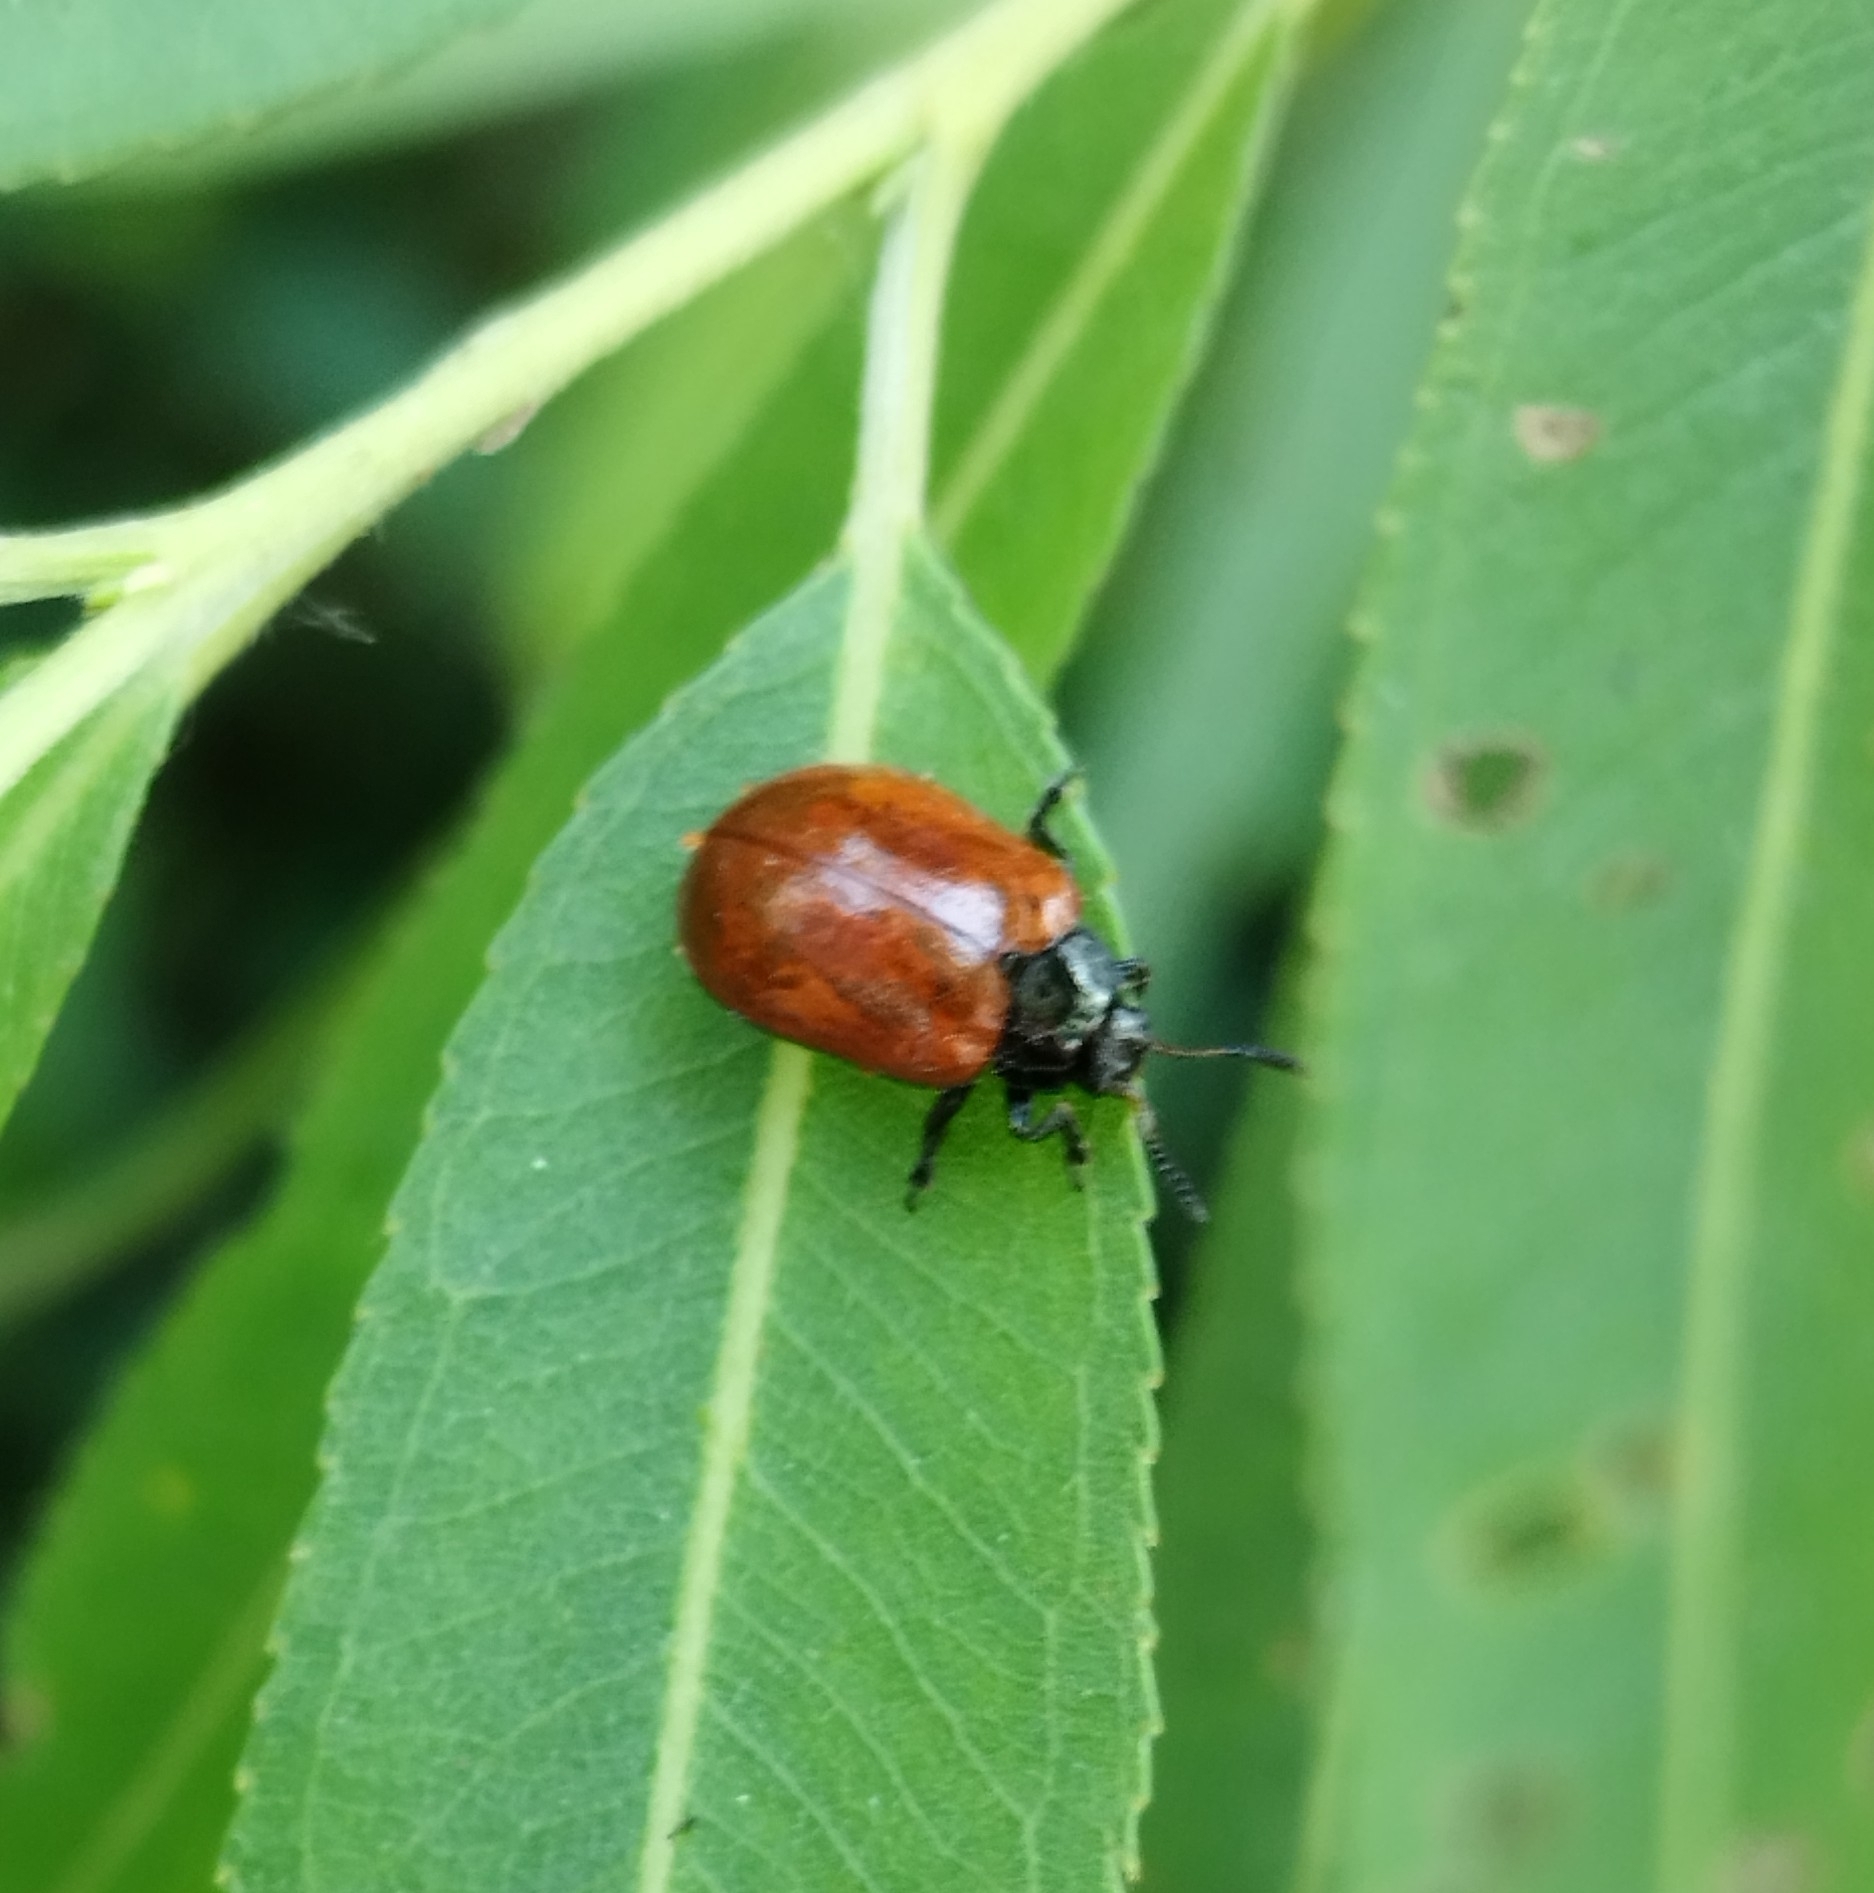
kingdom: Animalia
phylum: Arthropoda
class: Insecta
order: Coleoptera
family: Chrysomelidae
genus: Plagiodera
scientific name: Plagiodera
